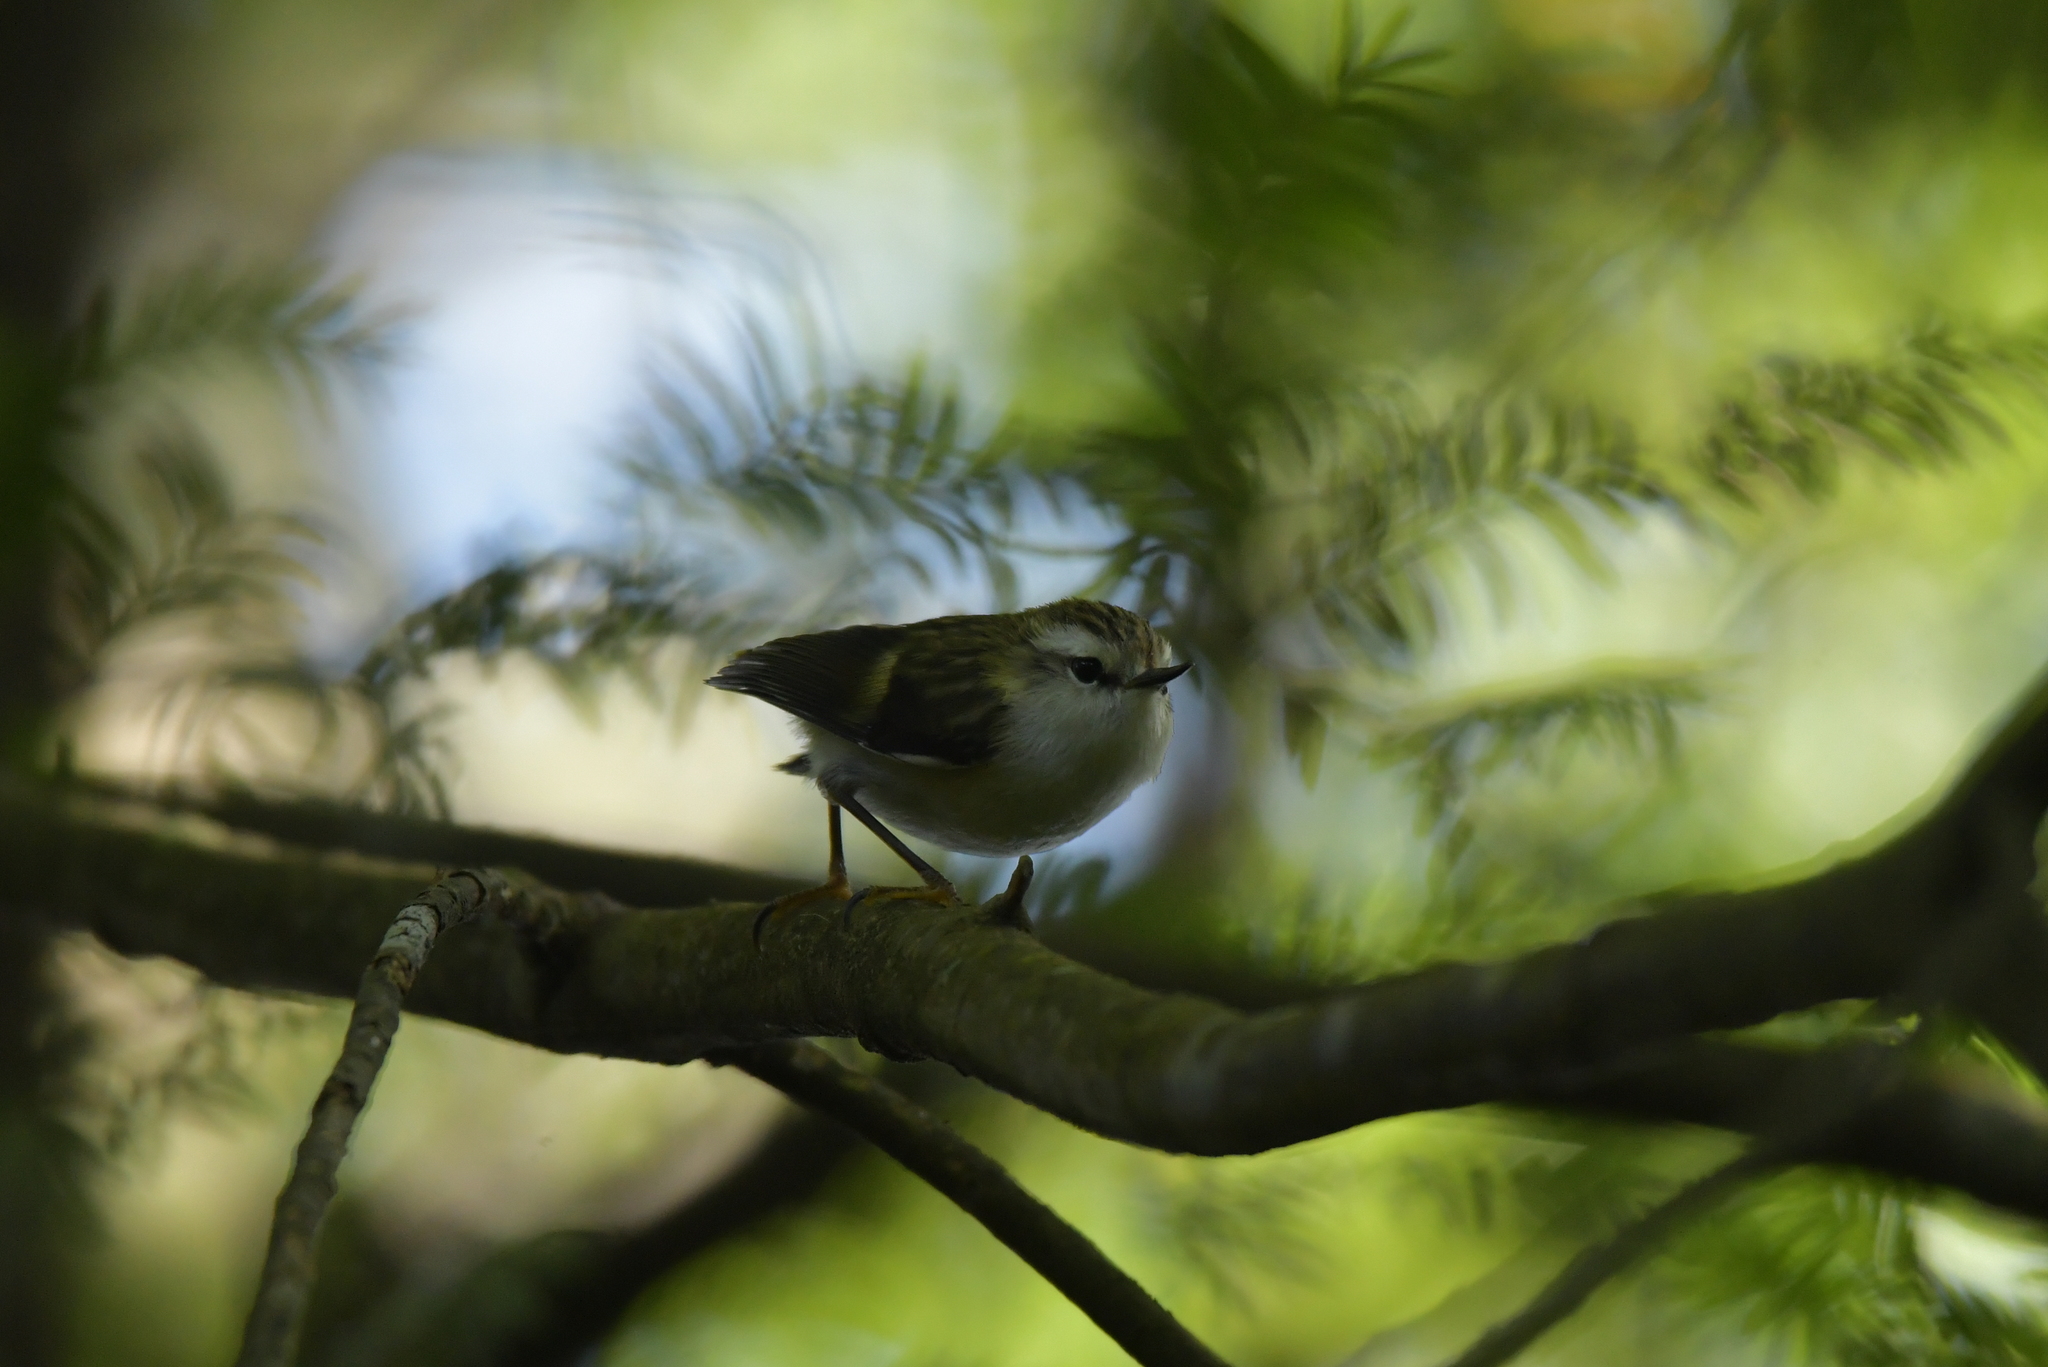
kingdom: Animalia
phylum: Chordata
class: Aves
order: Passeriformes
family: Acanthisittidae
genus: Acanthisitta
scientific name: Acanthisitta chloris
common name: Rifleman
